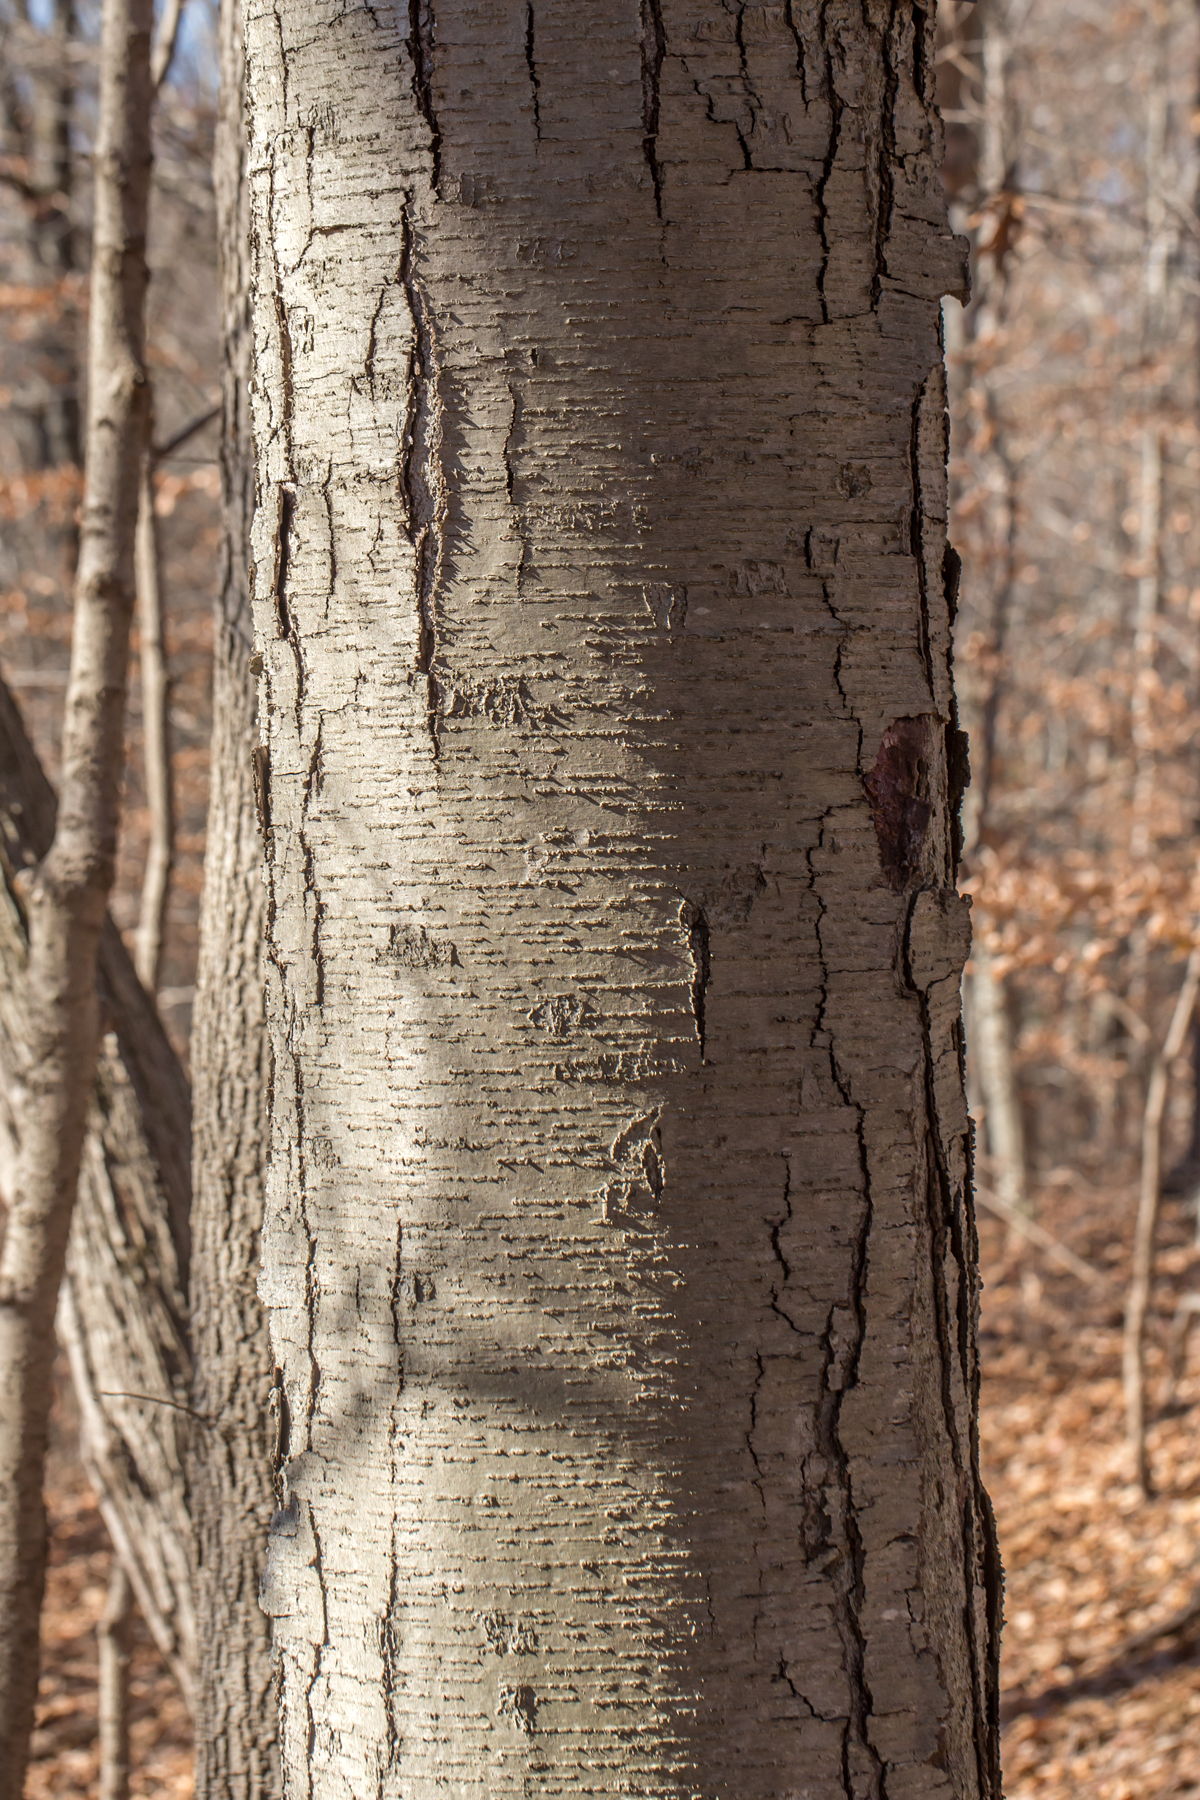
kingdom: Plantae
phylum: Tracheophyta
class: Magnoliopsida
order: Fagales
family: Betulaceae
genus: Betula
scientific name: Betula lenta
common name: Black birch
